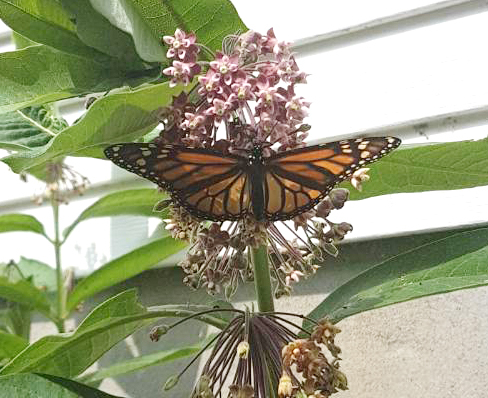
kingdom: Animalia
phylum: Arthropoda
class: Insecta
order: Lepidoptera
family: Nymphalidae
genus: Danaus
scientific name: Danaus plexippus
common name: Monarch
